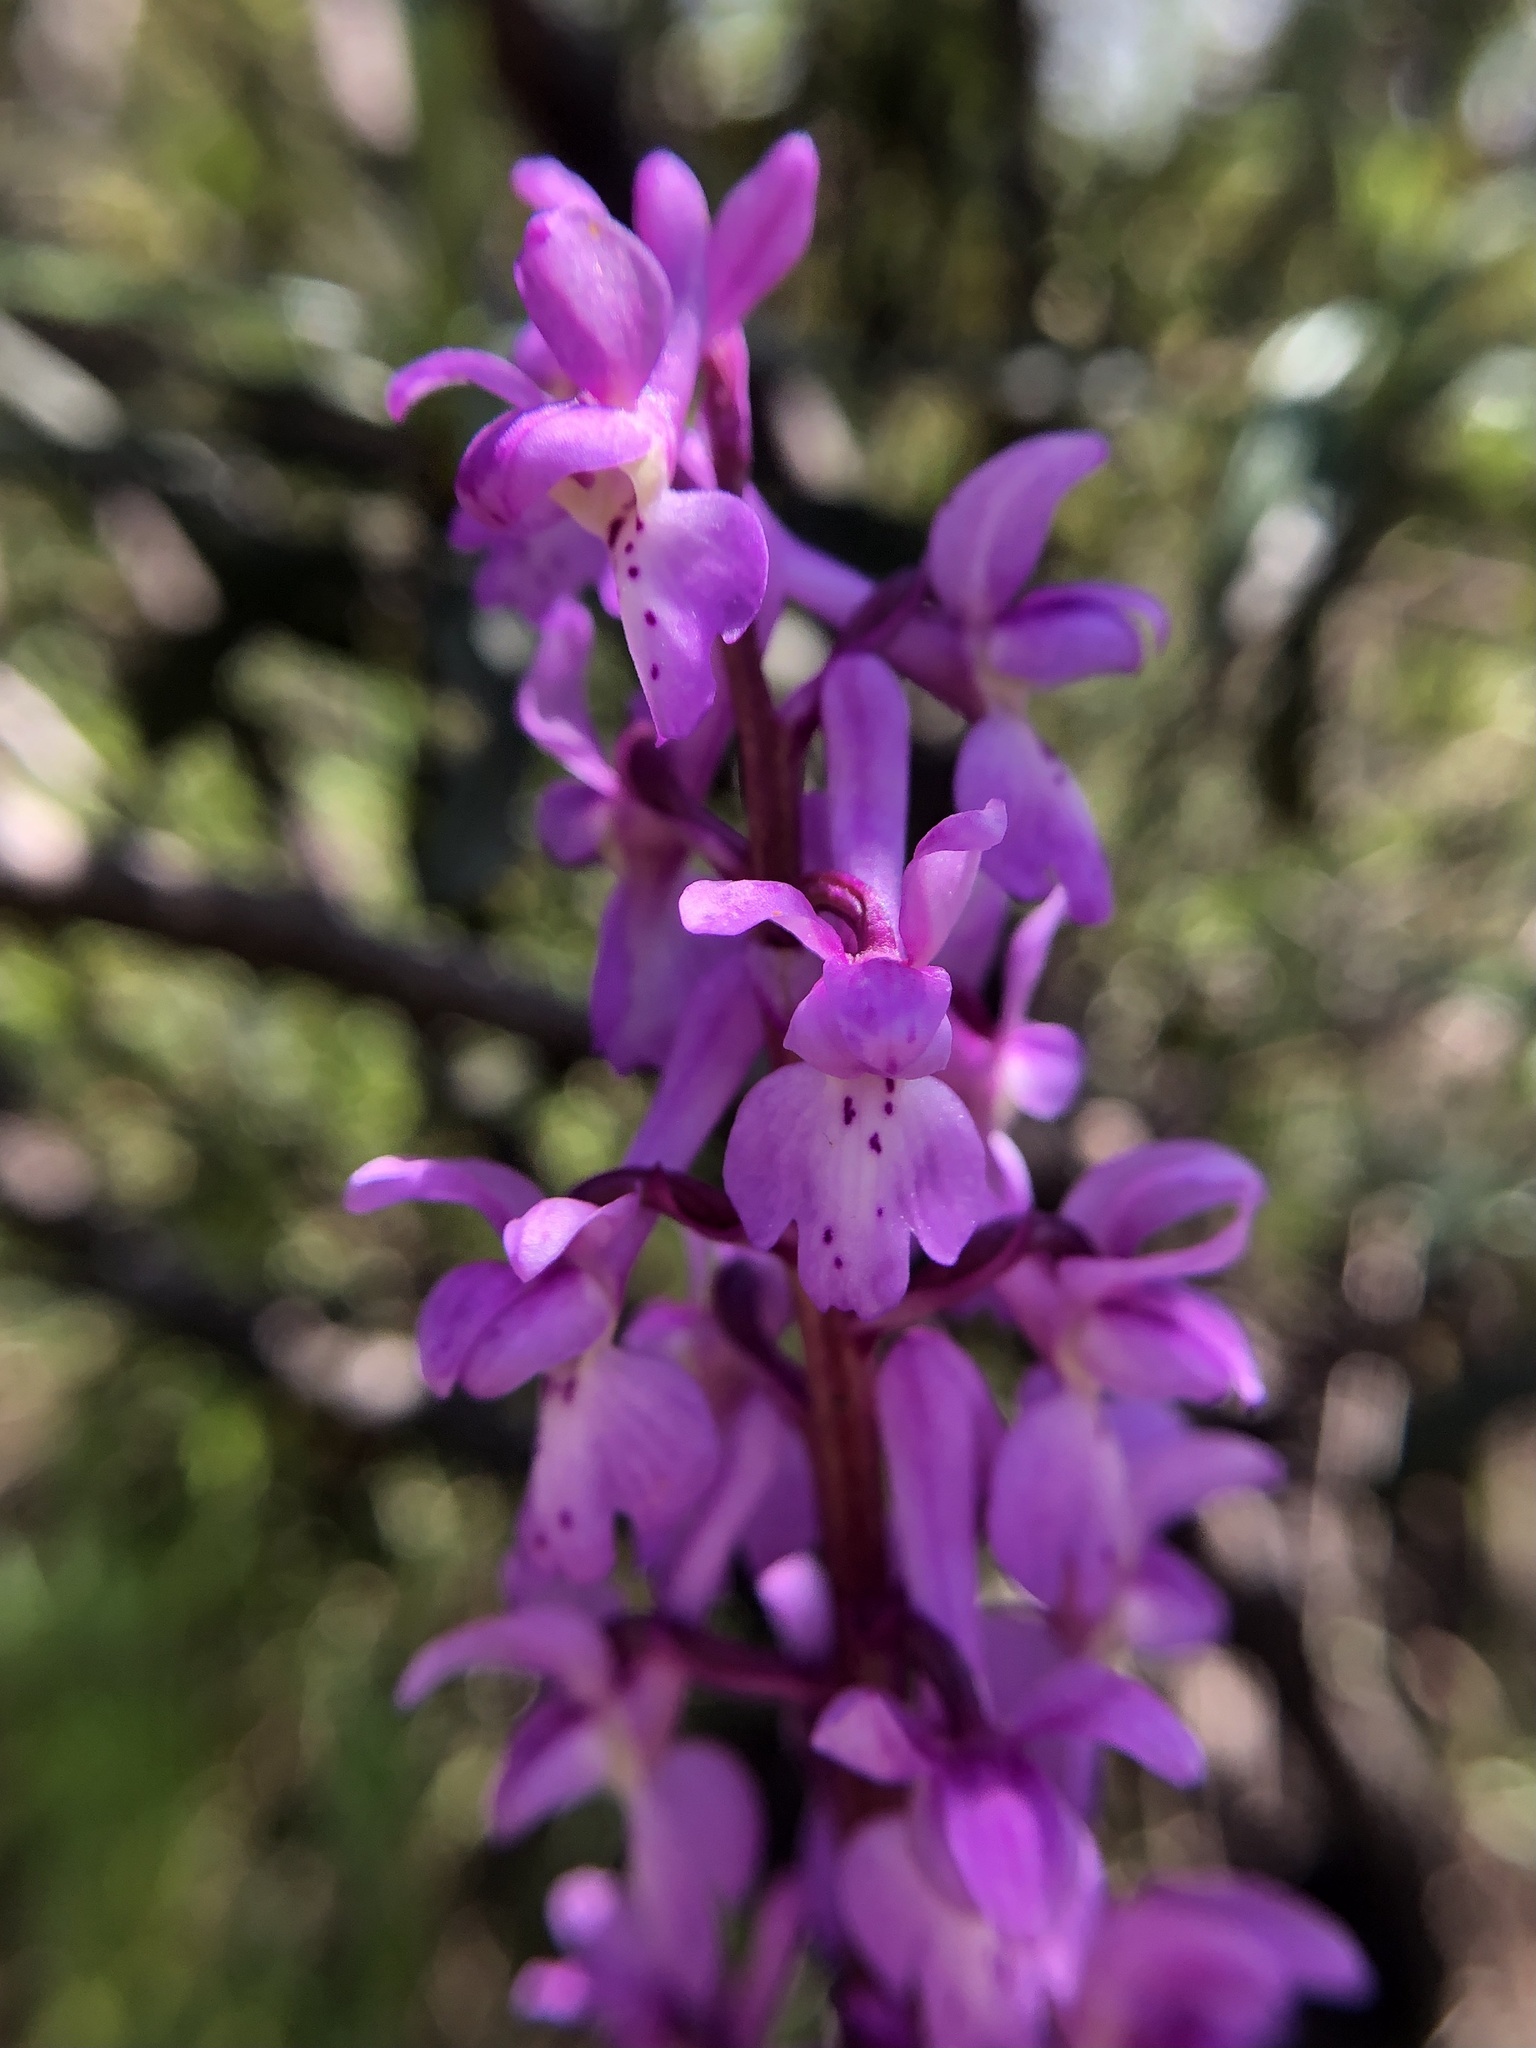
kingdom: Plantae
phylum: Tracheophyta
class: Liliopsida
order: Asparagales
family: Orchidaceae
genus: Orchis
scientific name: Orchis mascula
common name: Early-purple orchid
